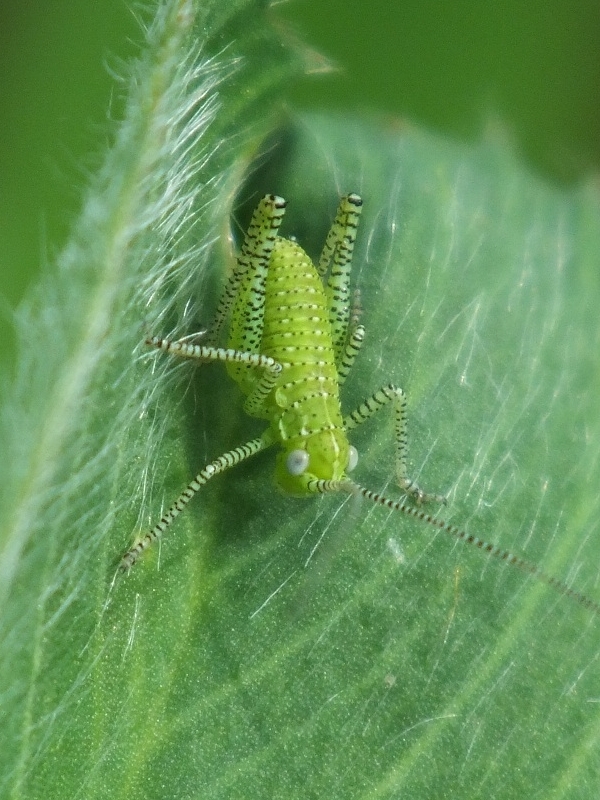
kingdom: Animalia
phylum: Arthropoda
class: Insecta
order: Orthoptera
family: Tettigoniidae
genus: Leptophyes
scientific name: Leptophyes albovittata
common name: Striped bush-cricket
